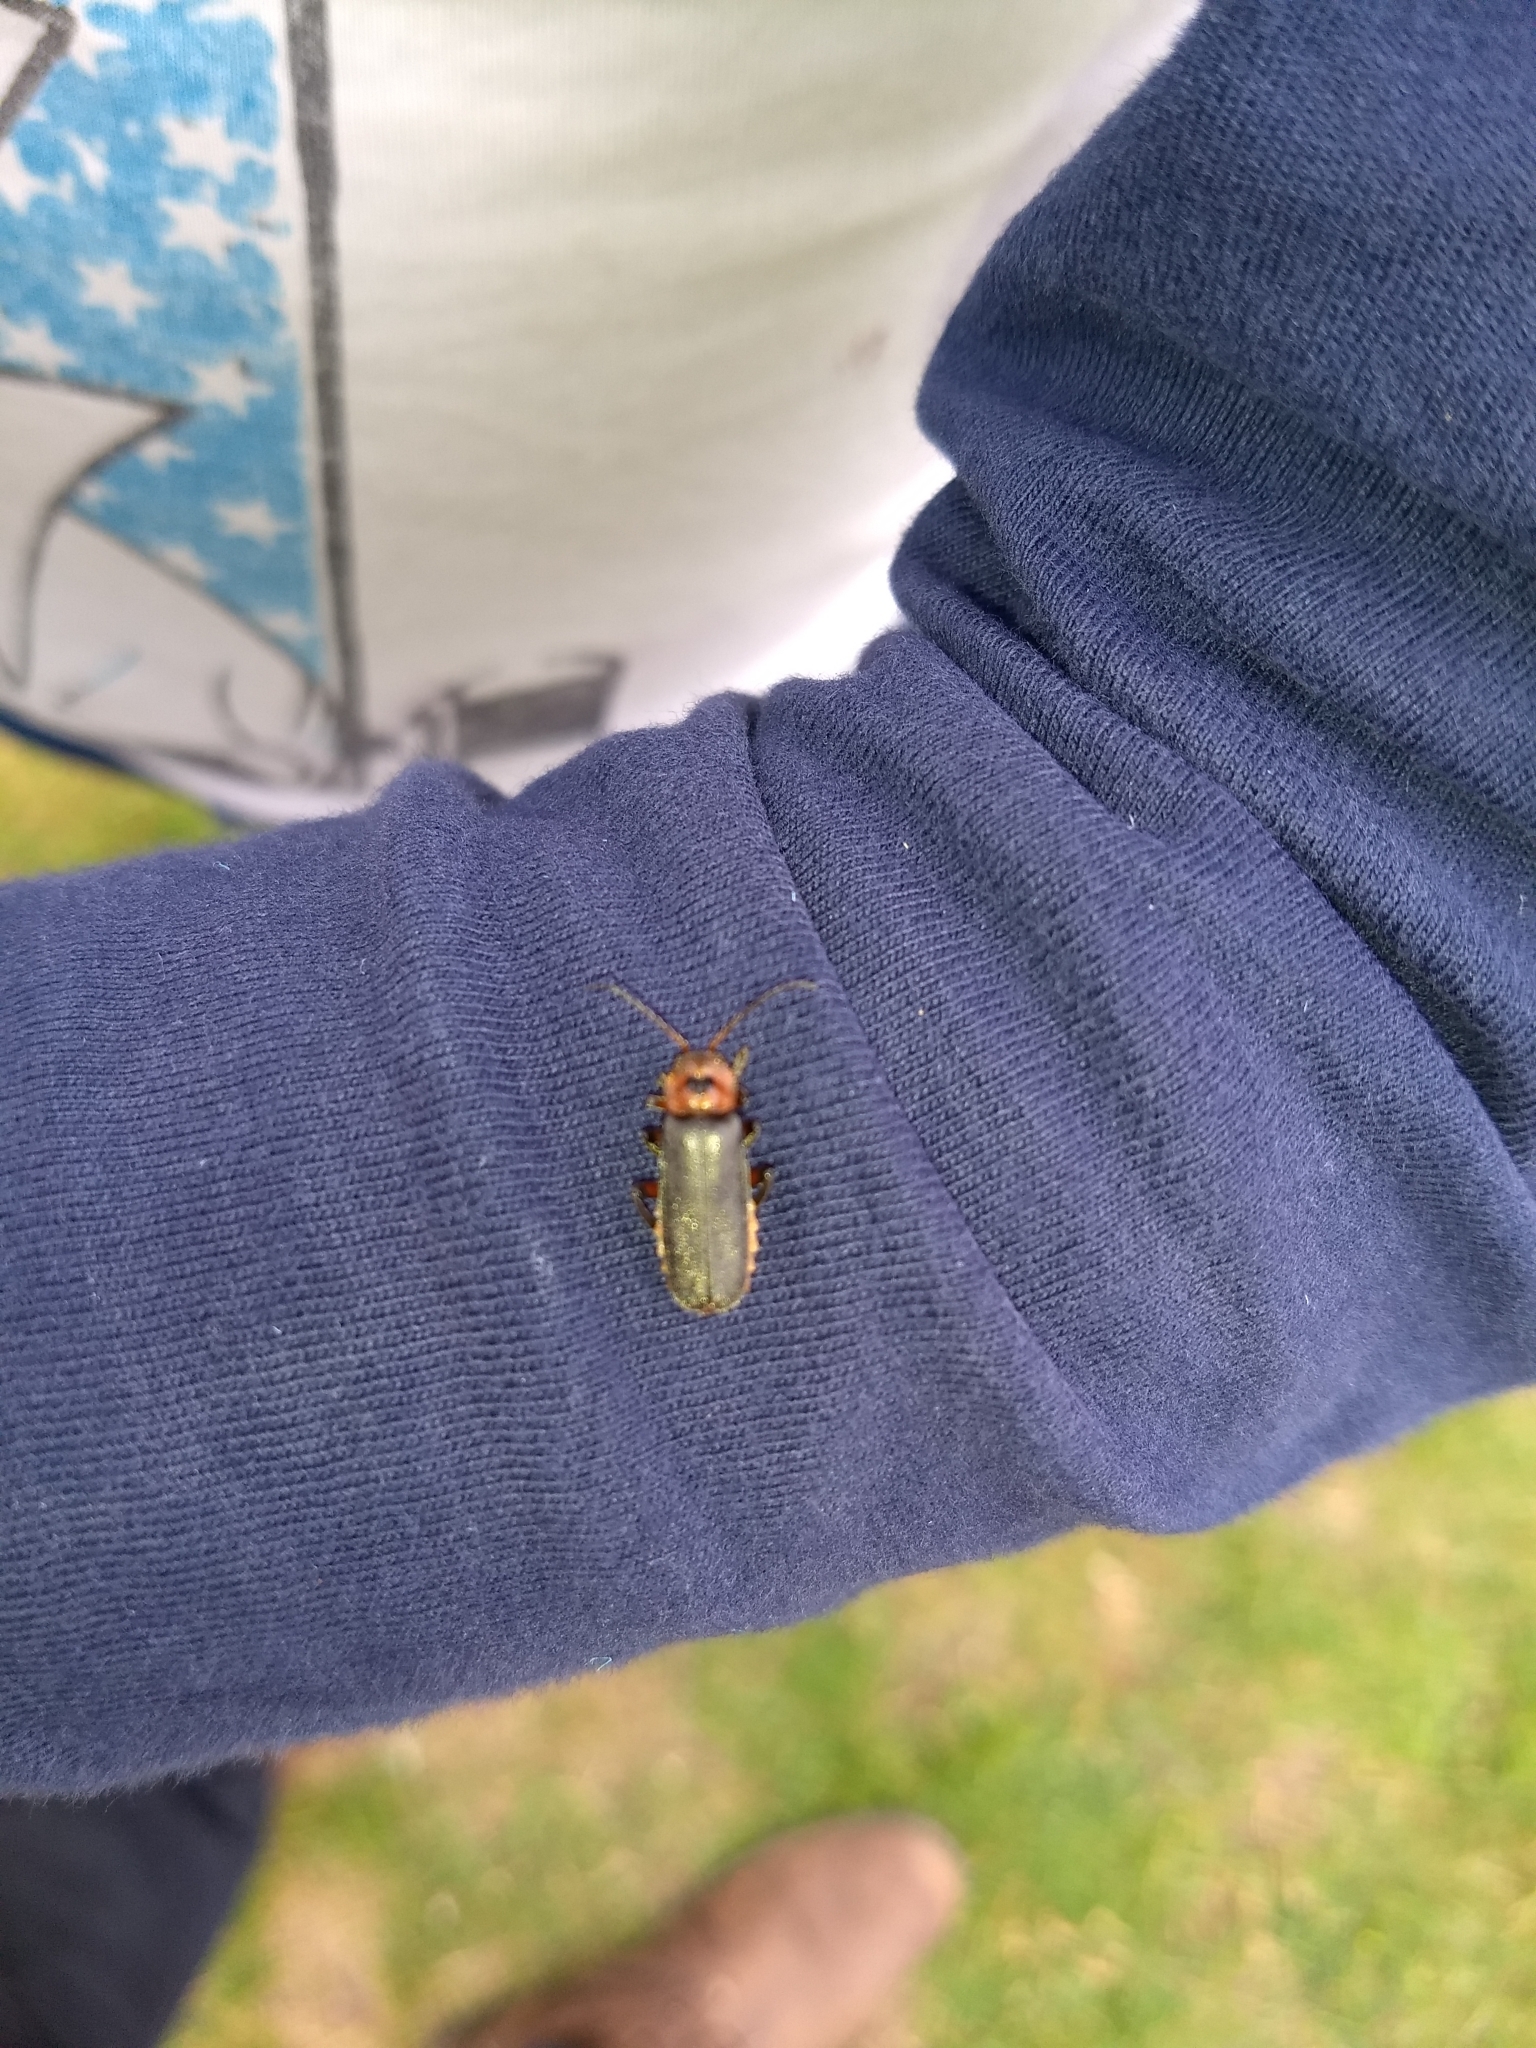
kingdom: Animalia
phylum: Arthropoda
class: Insecta
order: Coleoptera
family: Cantharidae
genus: Cantharis
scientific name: Cantharis rustica
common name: Soldier beetle
